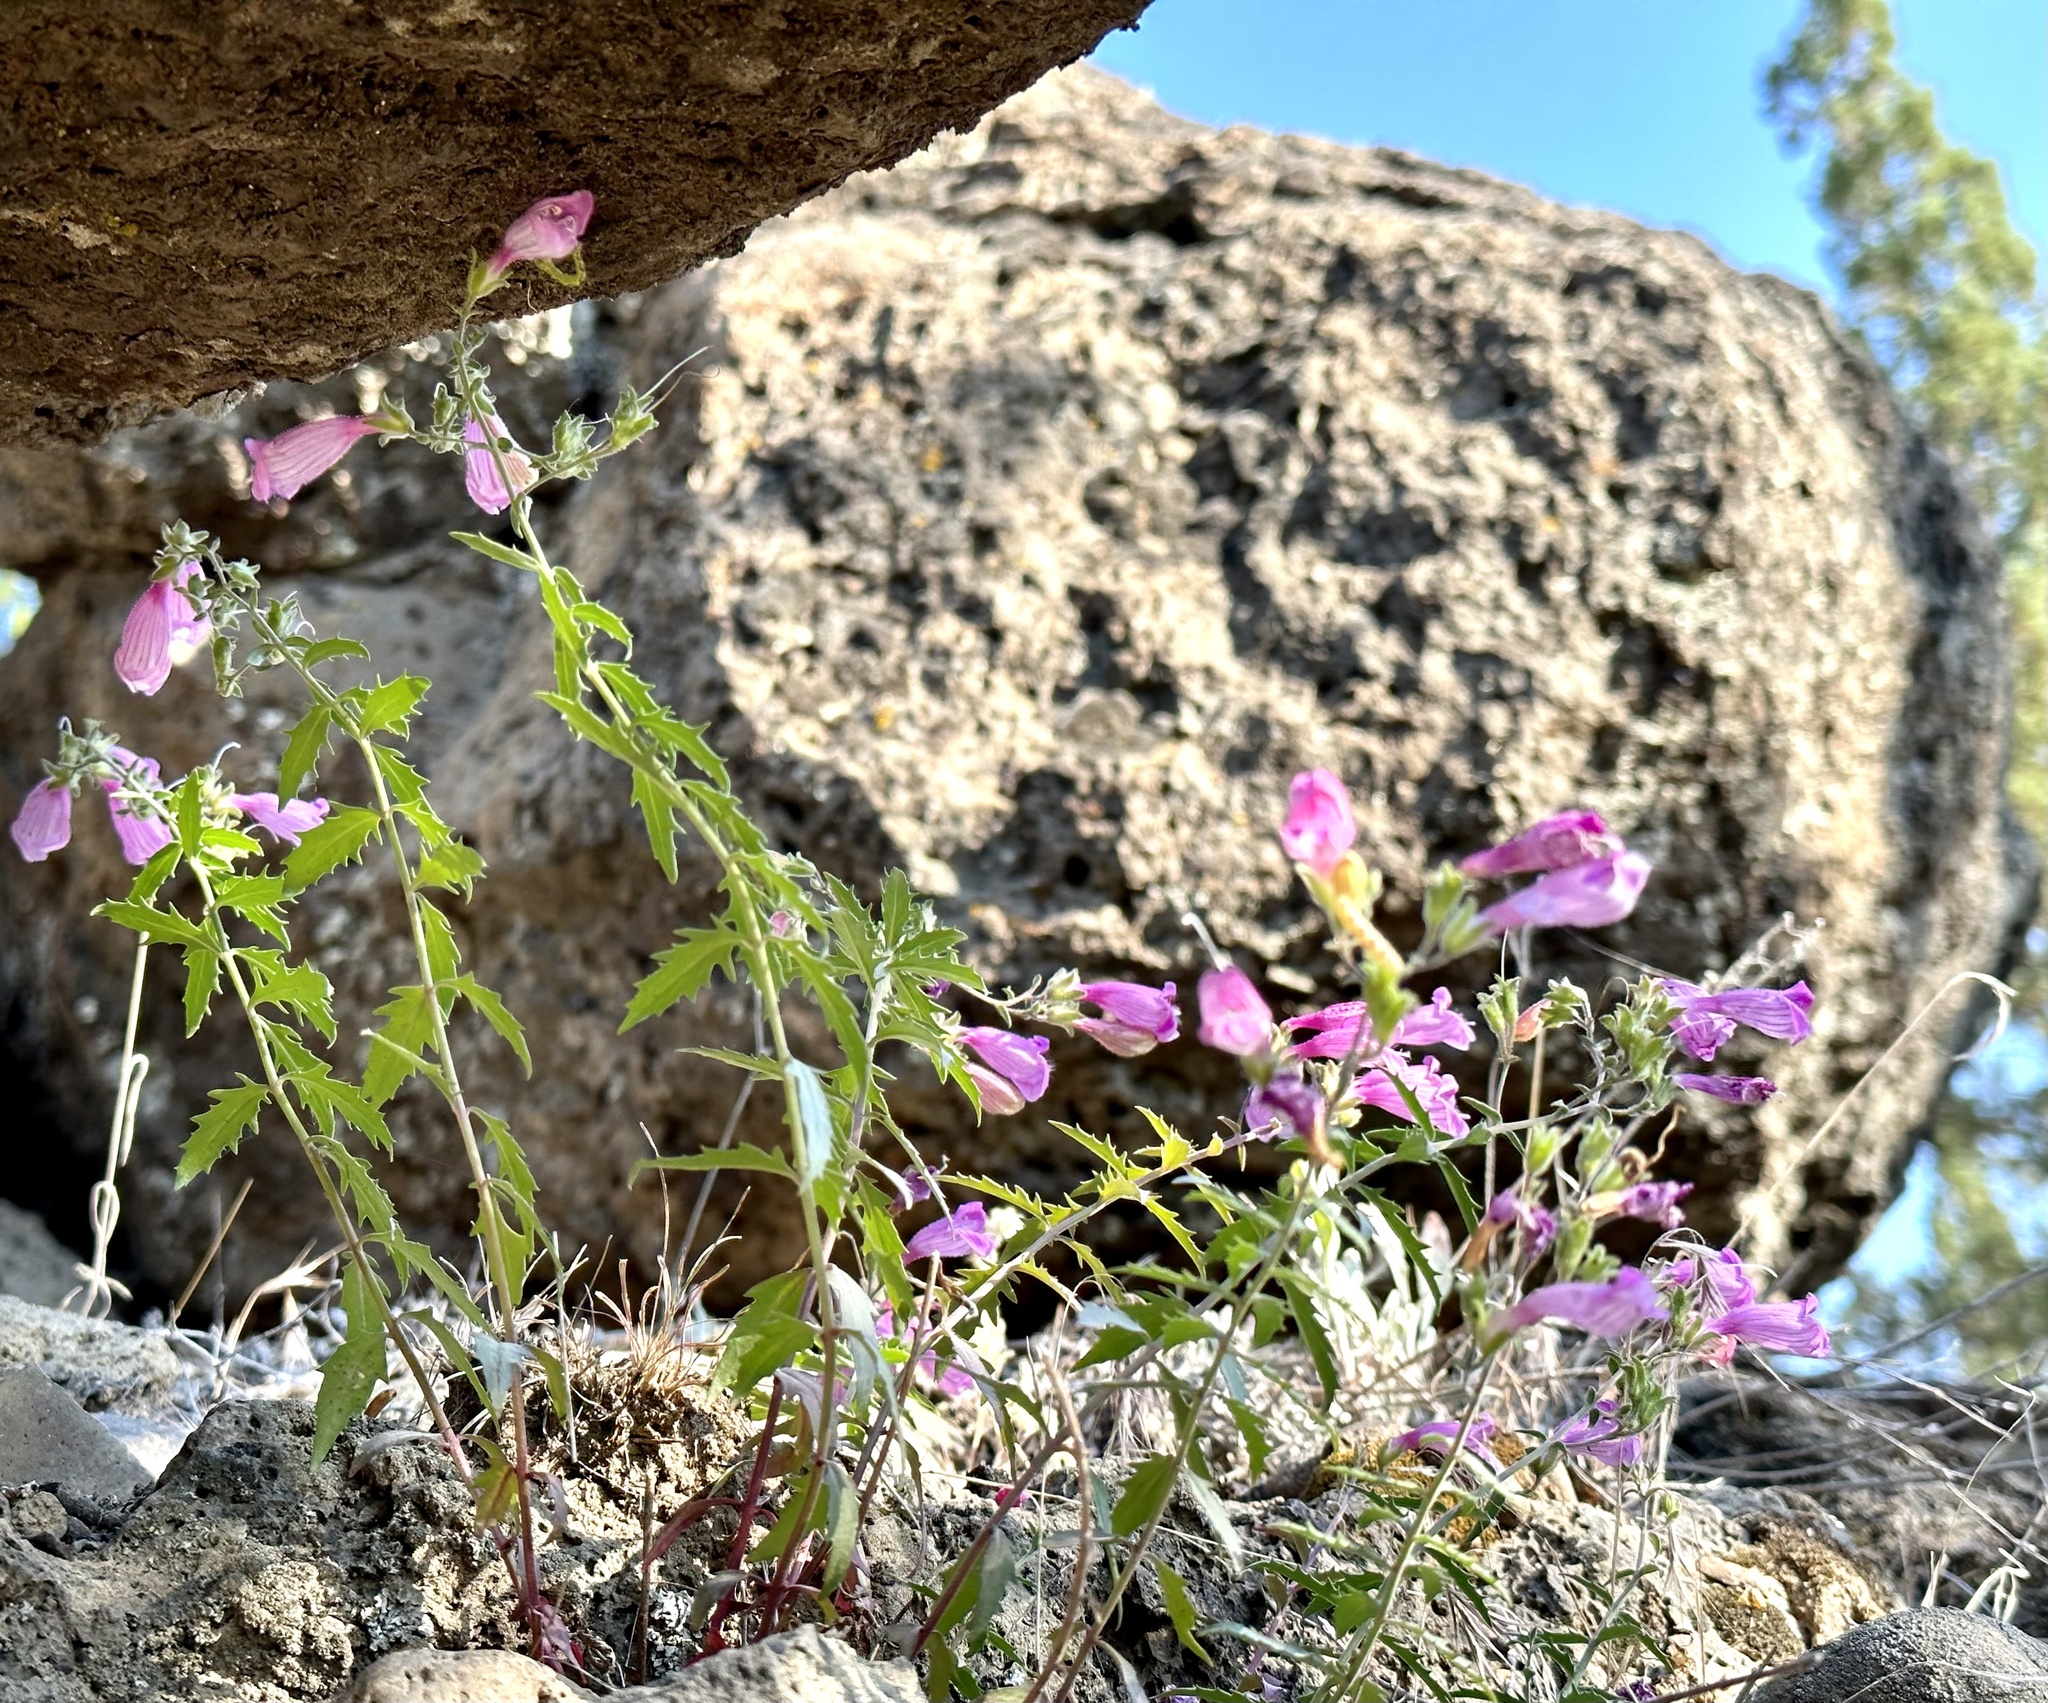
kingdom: Plantae
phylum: Tracheophyta
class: Magnoliopsida
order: Lamiales
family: Plantaginaceae
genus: Penstemon
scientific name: Penstemon richardsonii
